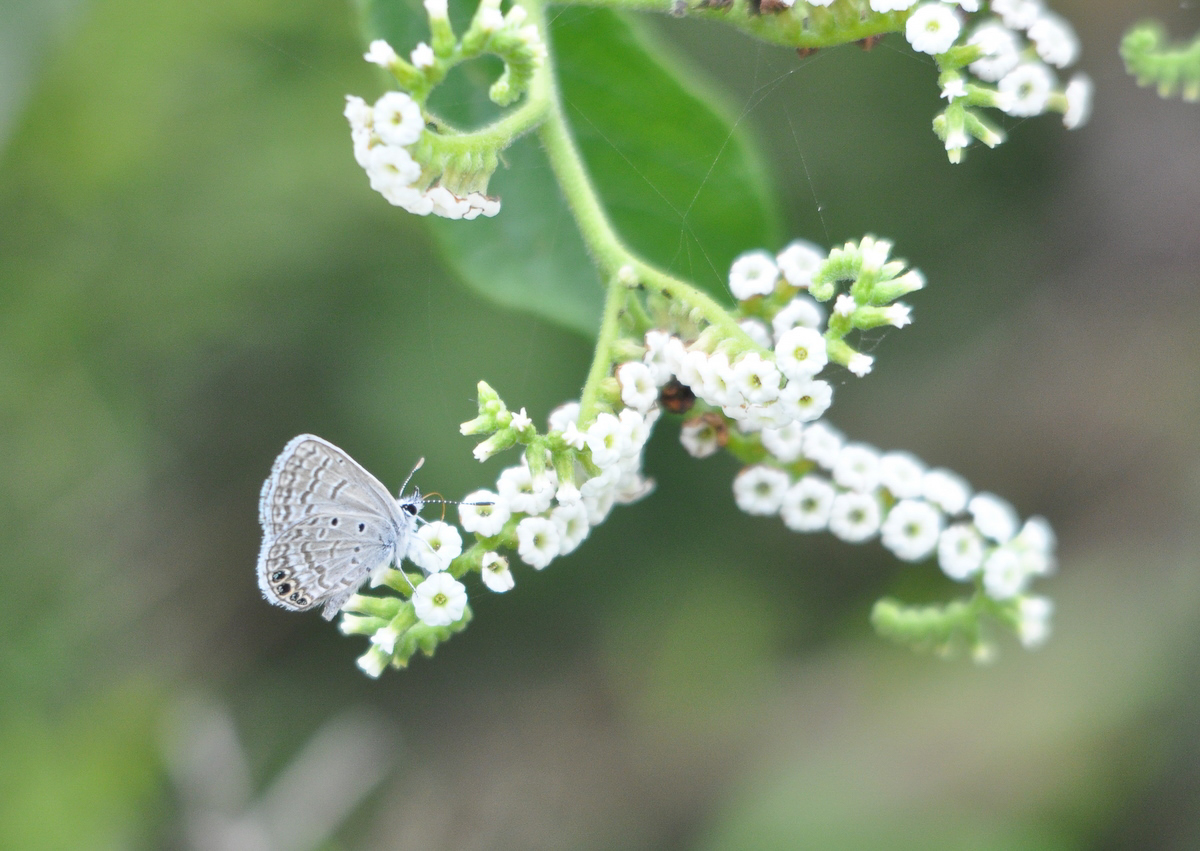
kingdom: Animalia
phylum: Arthropoda
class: Insecta
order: Lepidoptera
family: Lycaenidae
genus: Hemiargus
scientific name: Hemiargus ramon
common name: Ramon blue
